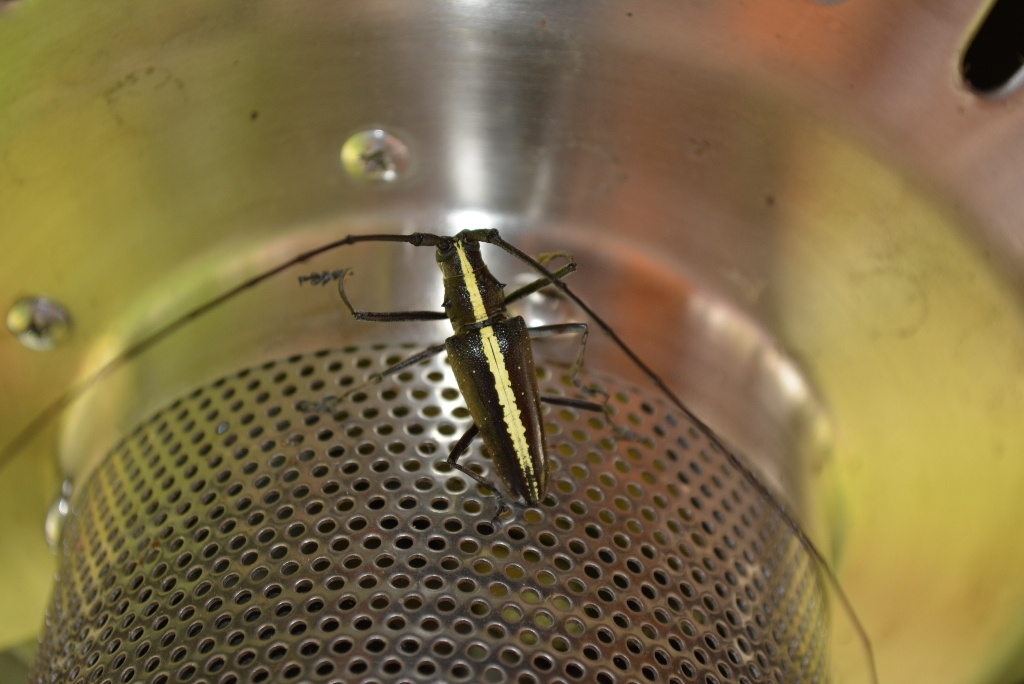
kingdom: Animalia
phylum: Arthropoda
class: Insecta
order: Coleoptera
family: Cerambycidae
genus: Taeniotes
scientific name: Taeniotes scalatus
